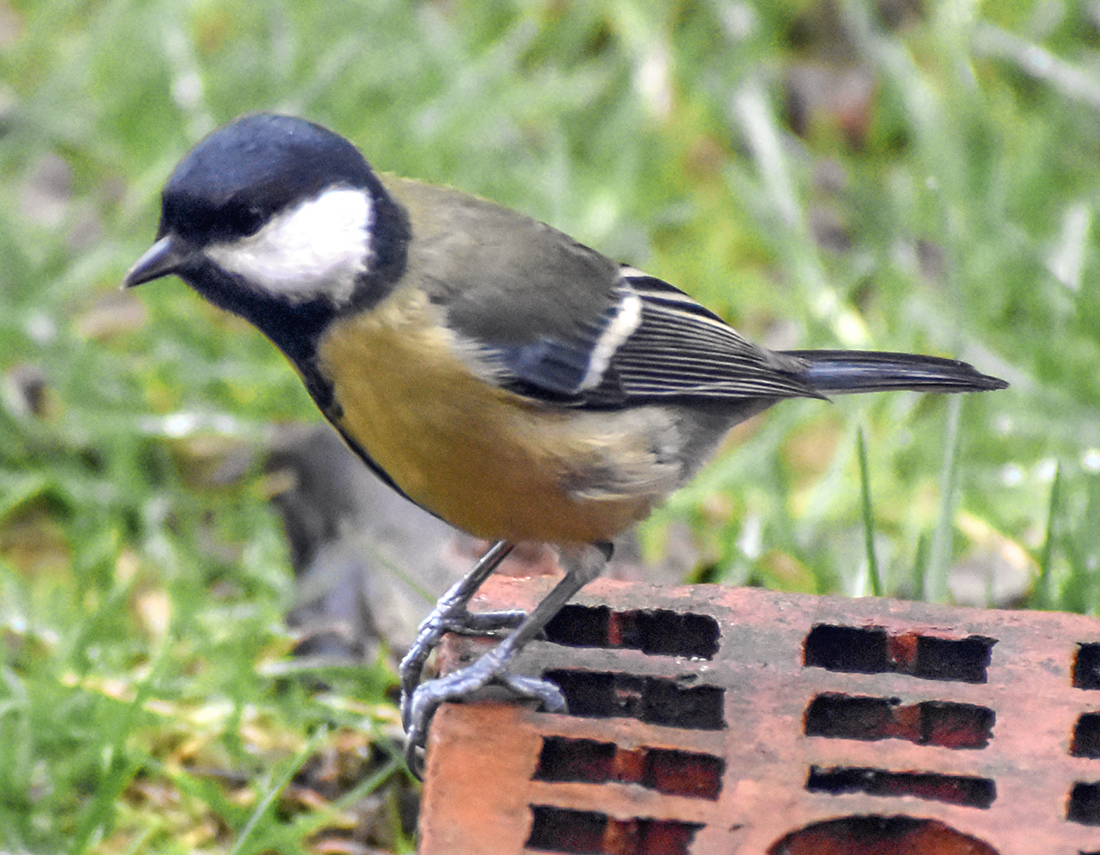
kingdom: Animalia
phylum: Chordata
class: Aves
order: Passeriformes
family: Paridae
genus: Parus
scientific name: Parus major
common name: Great tit
